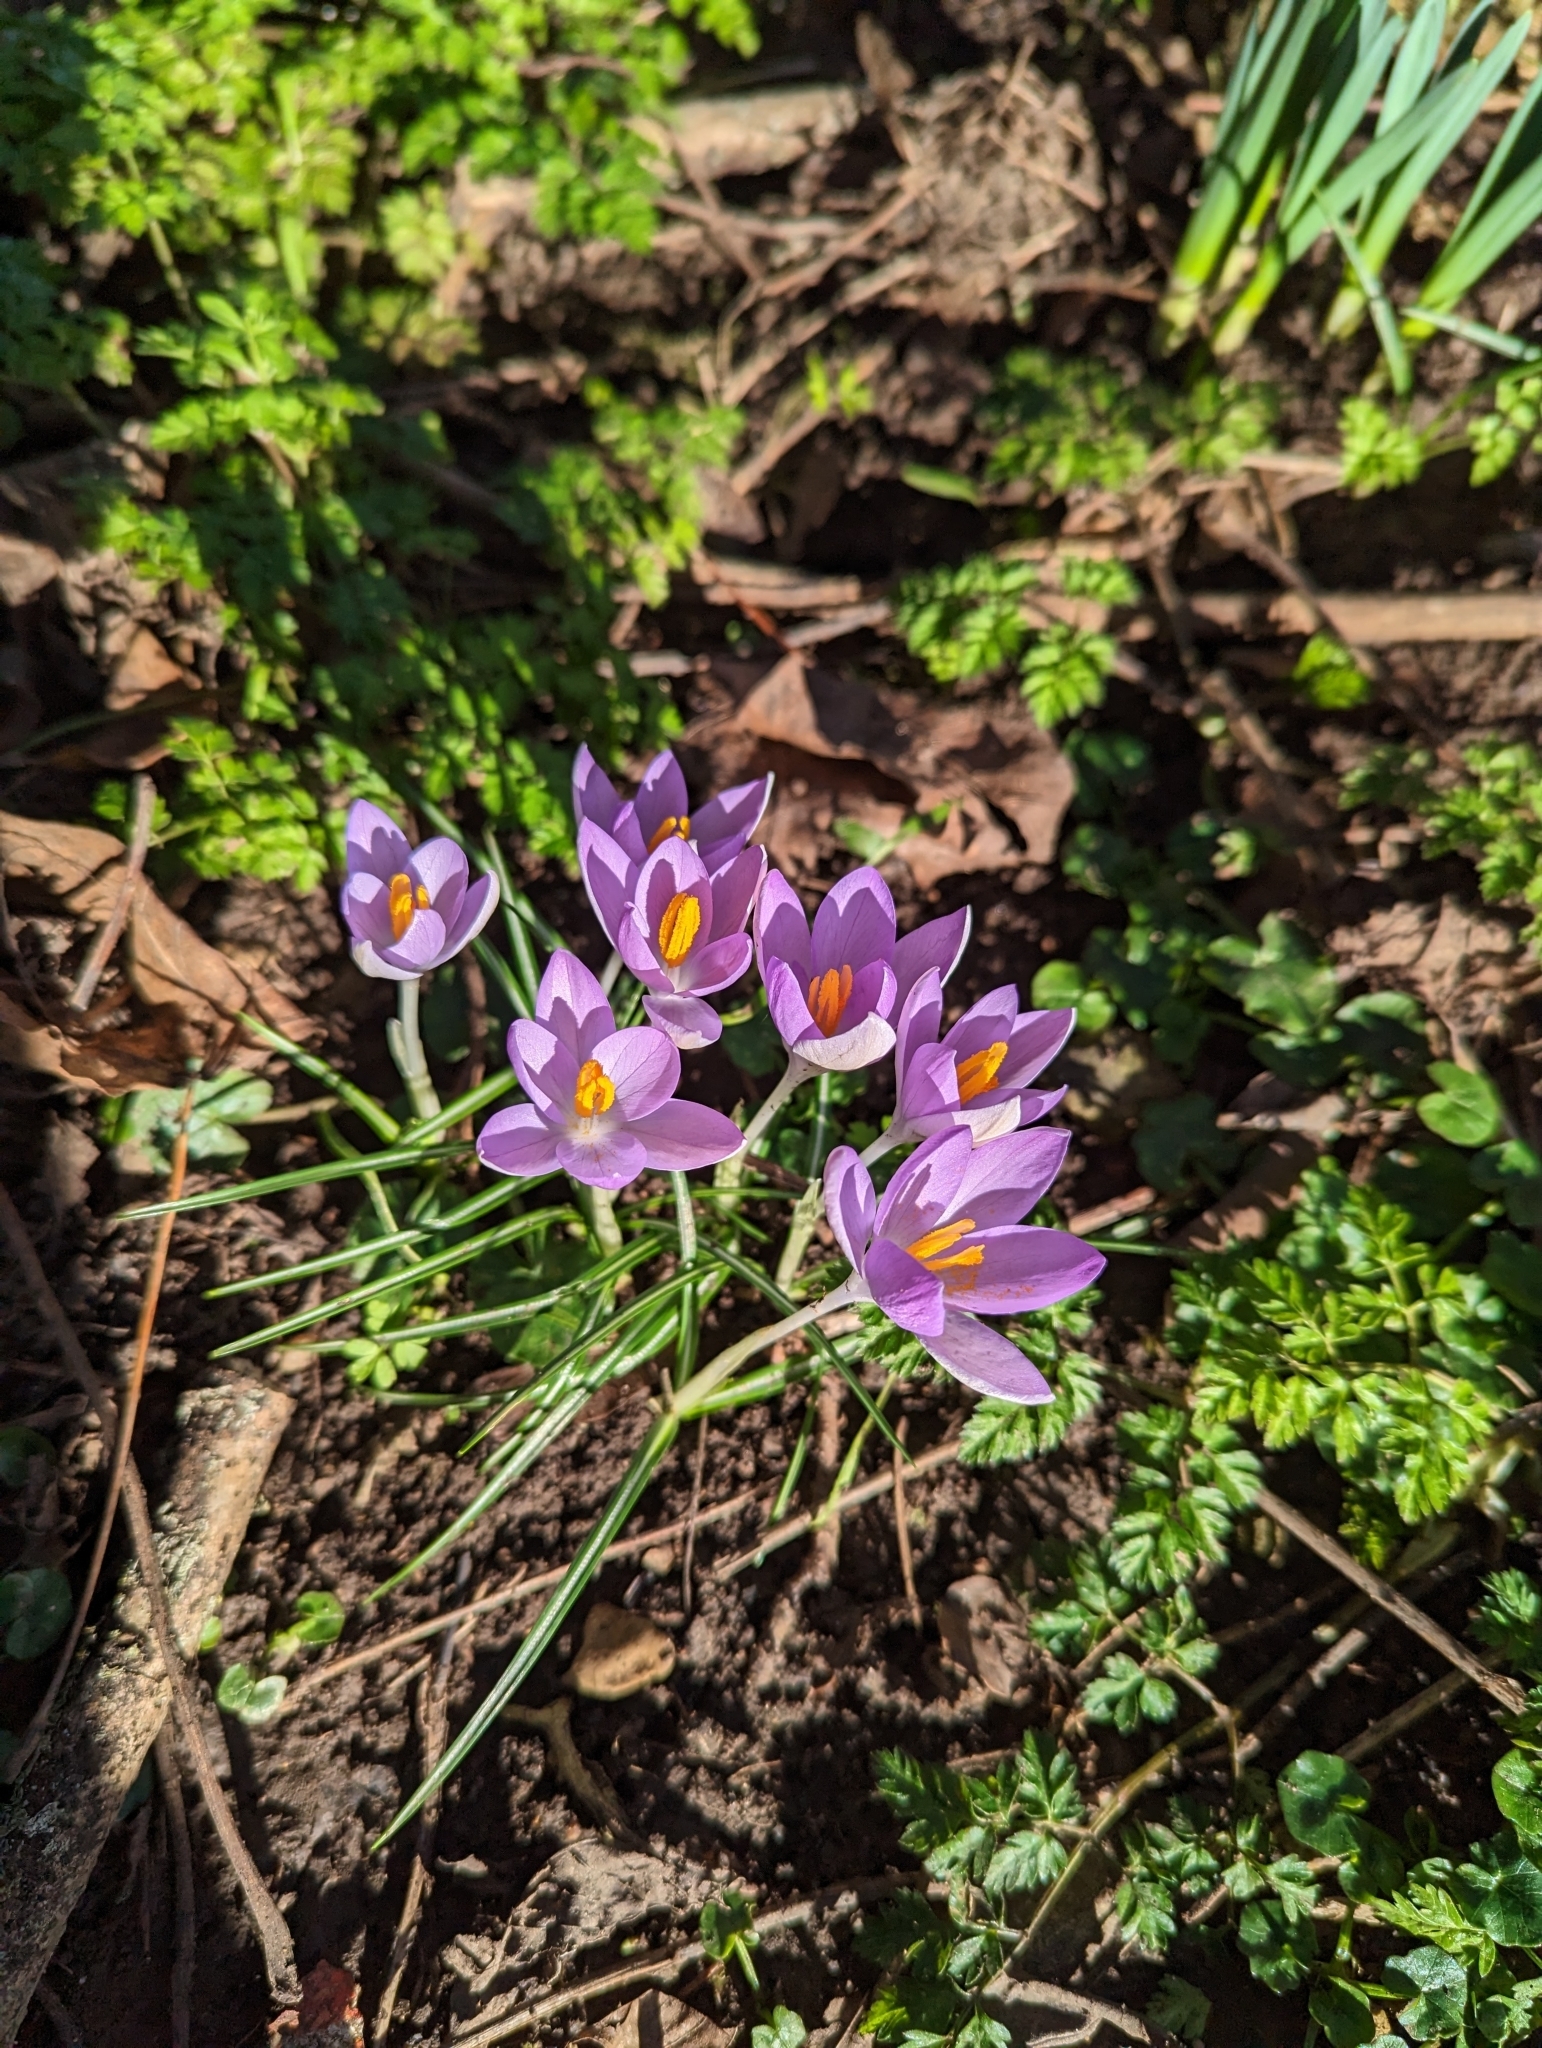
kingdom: Plantae
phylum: Tracheophyta
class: Liliopsida
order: Asparagales
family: Iridaceae
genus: Crocus
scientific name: Crocus tommasinianus
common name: Early crocus
